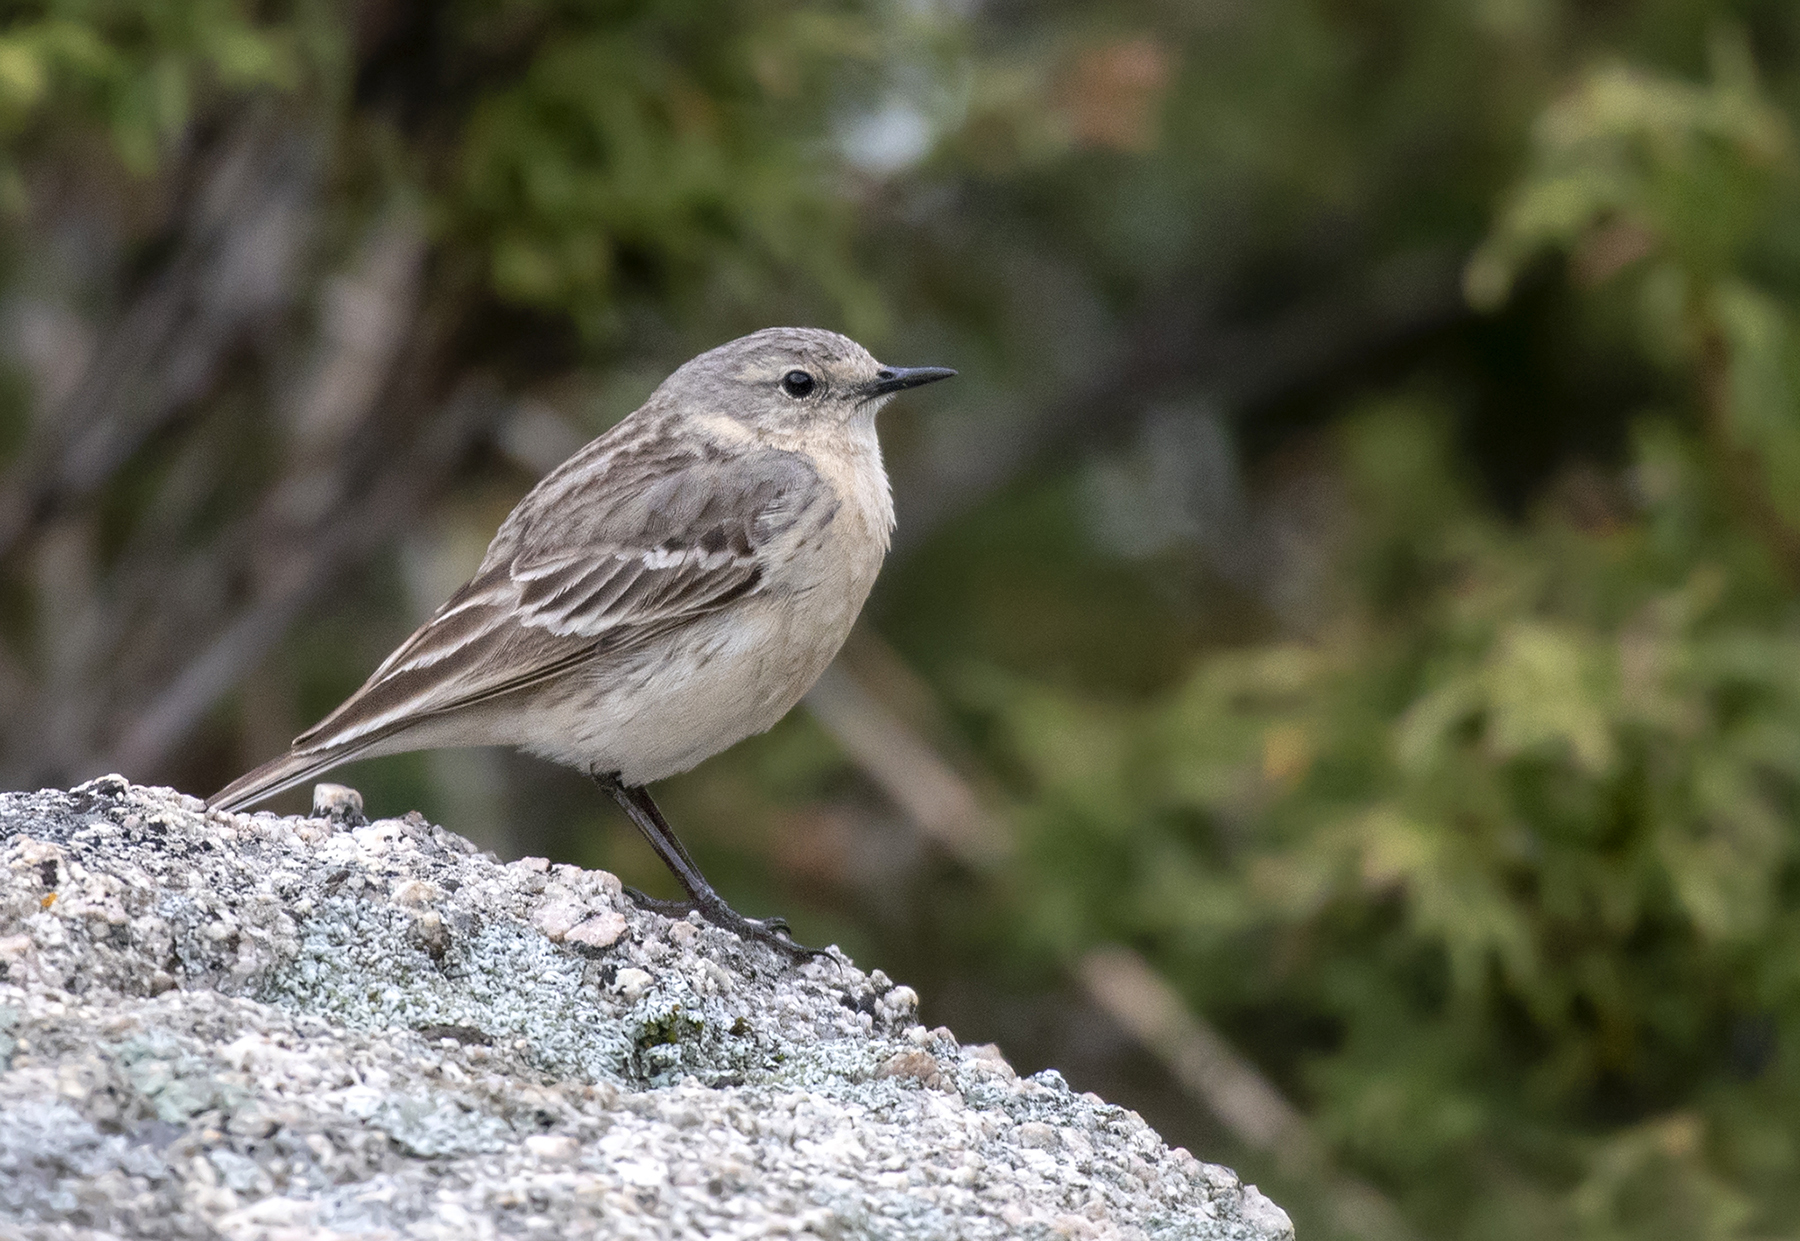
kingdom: Animalia
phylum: Chordata
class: Aves
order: Passeriformes
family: Motacillidae
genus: Anthus
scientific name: Anthus spinoletta
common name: Water pipit
